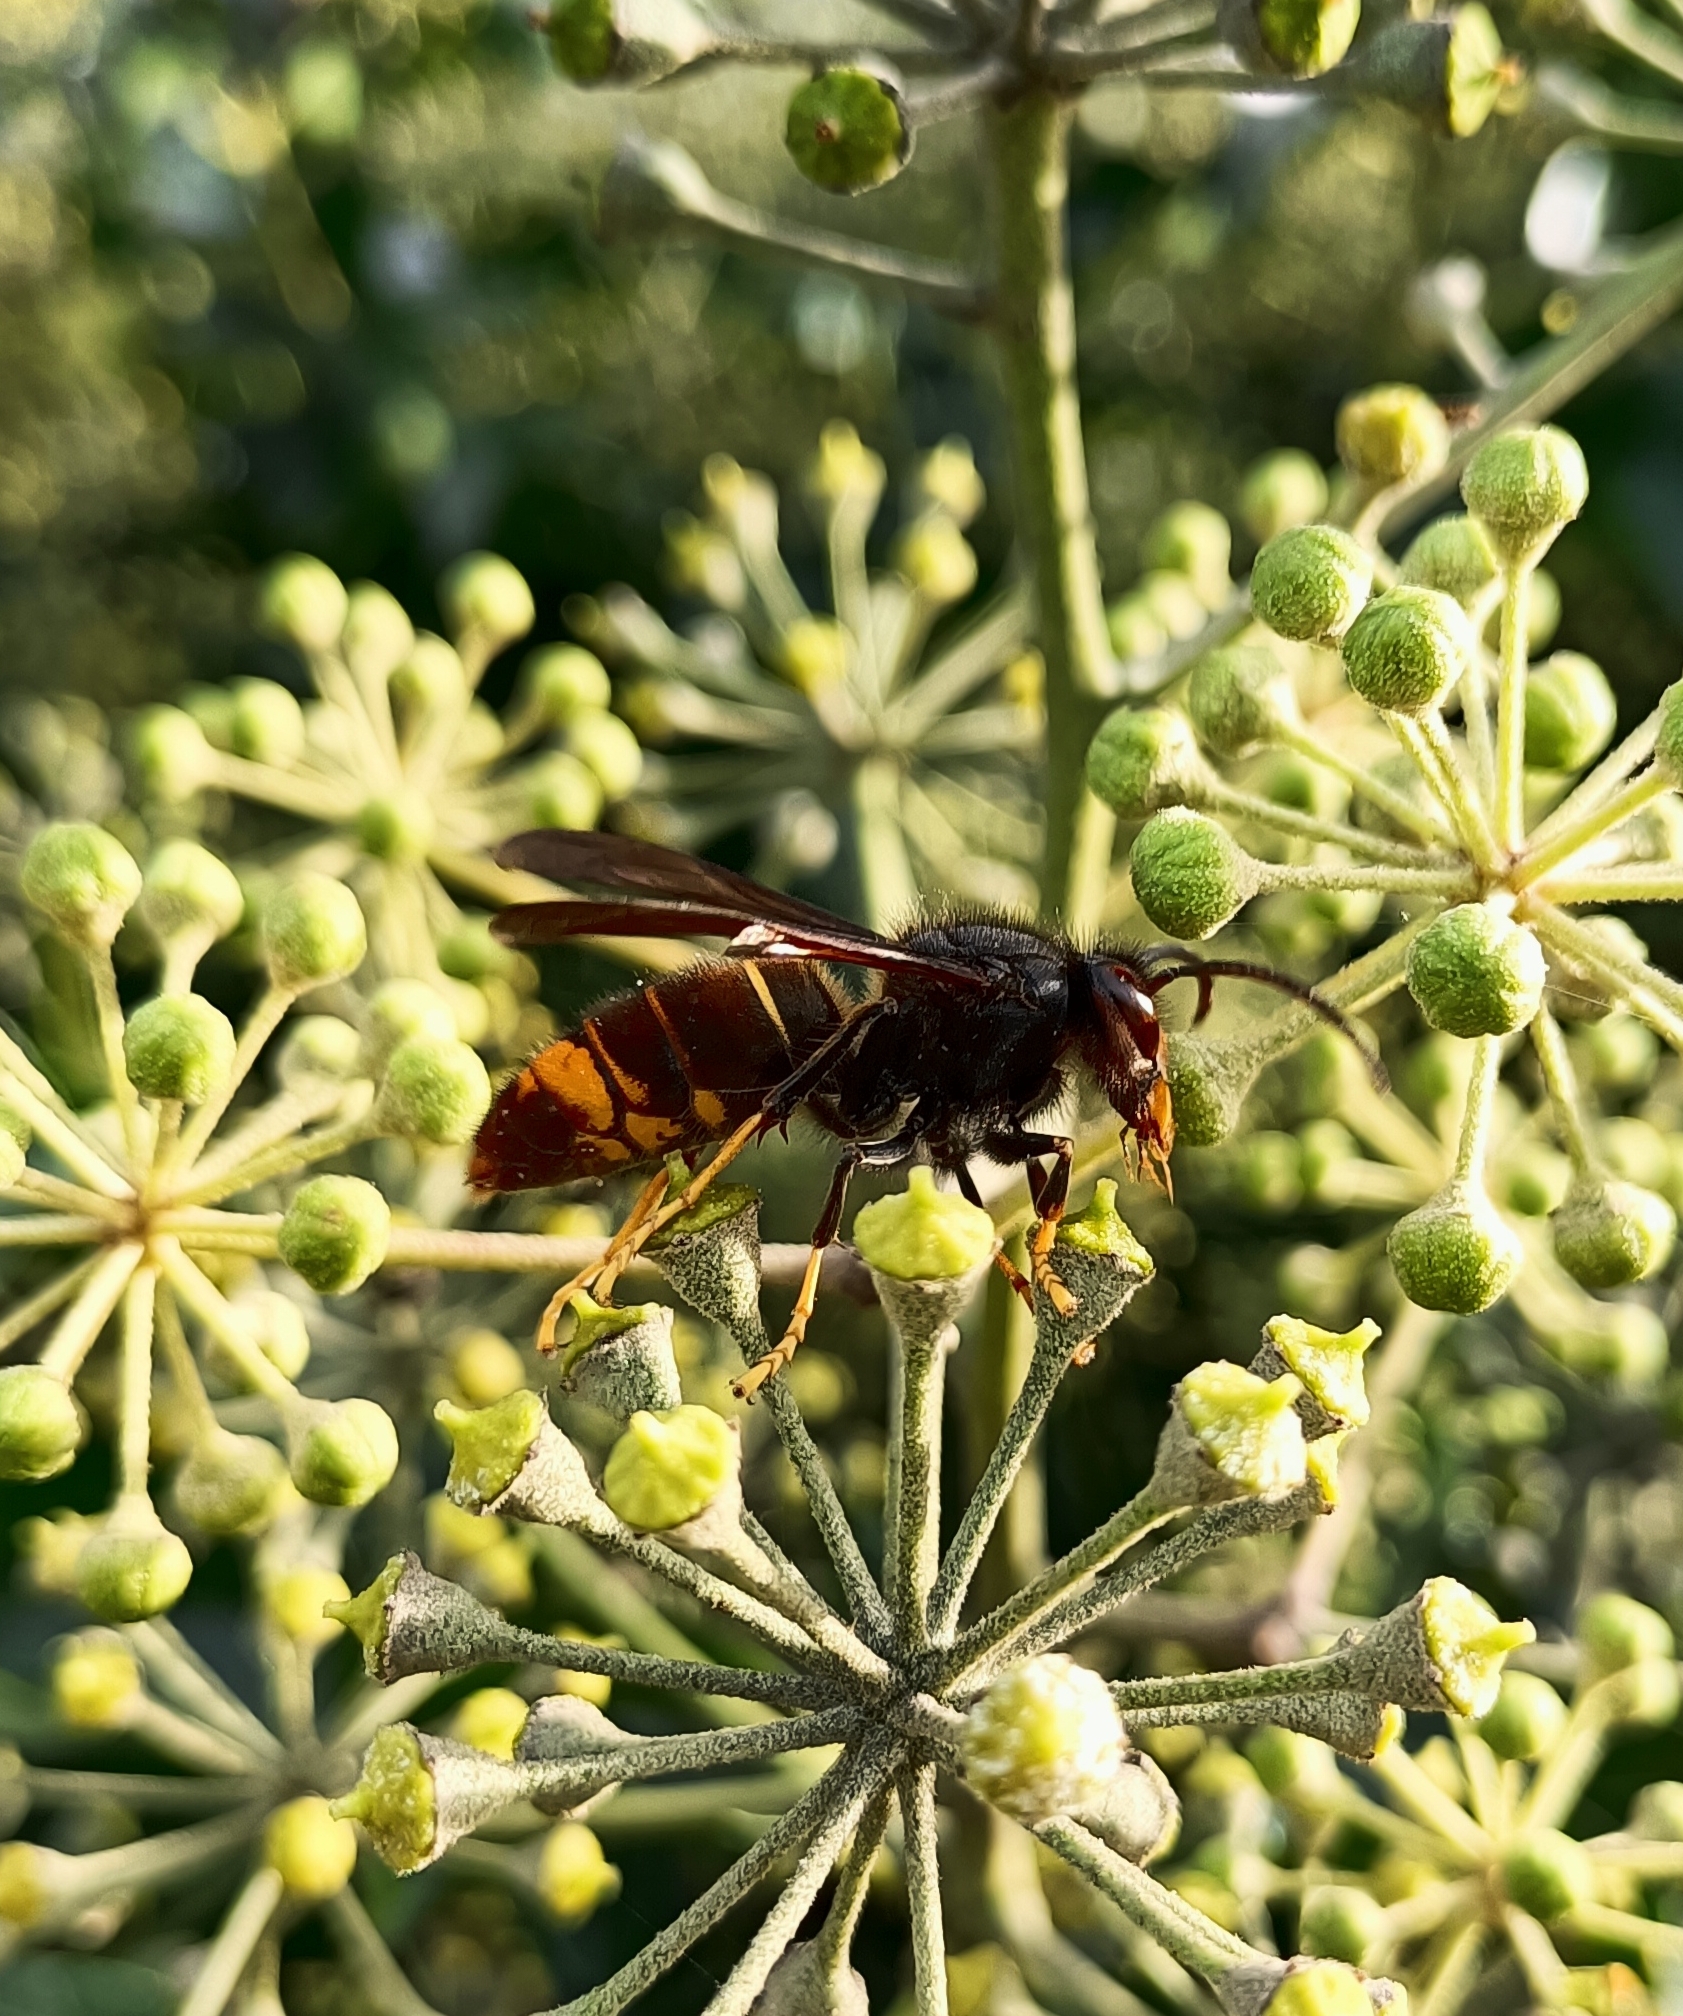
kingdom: Animalia
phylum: Arthropoda
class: Insecta
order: Hymenoptera
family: Vespidae
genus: Vespa
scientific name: Vespa velutina
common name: Asian hornet
